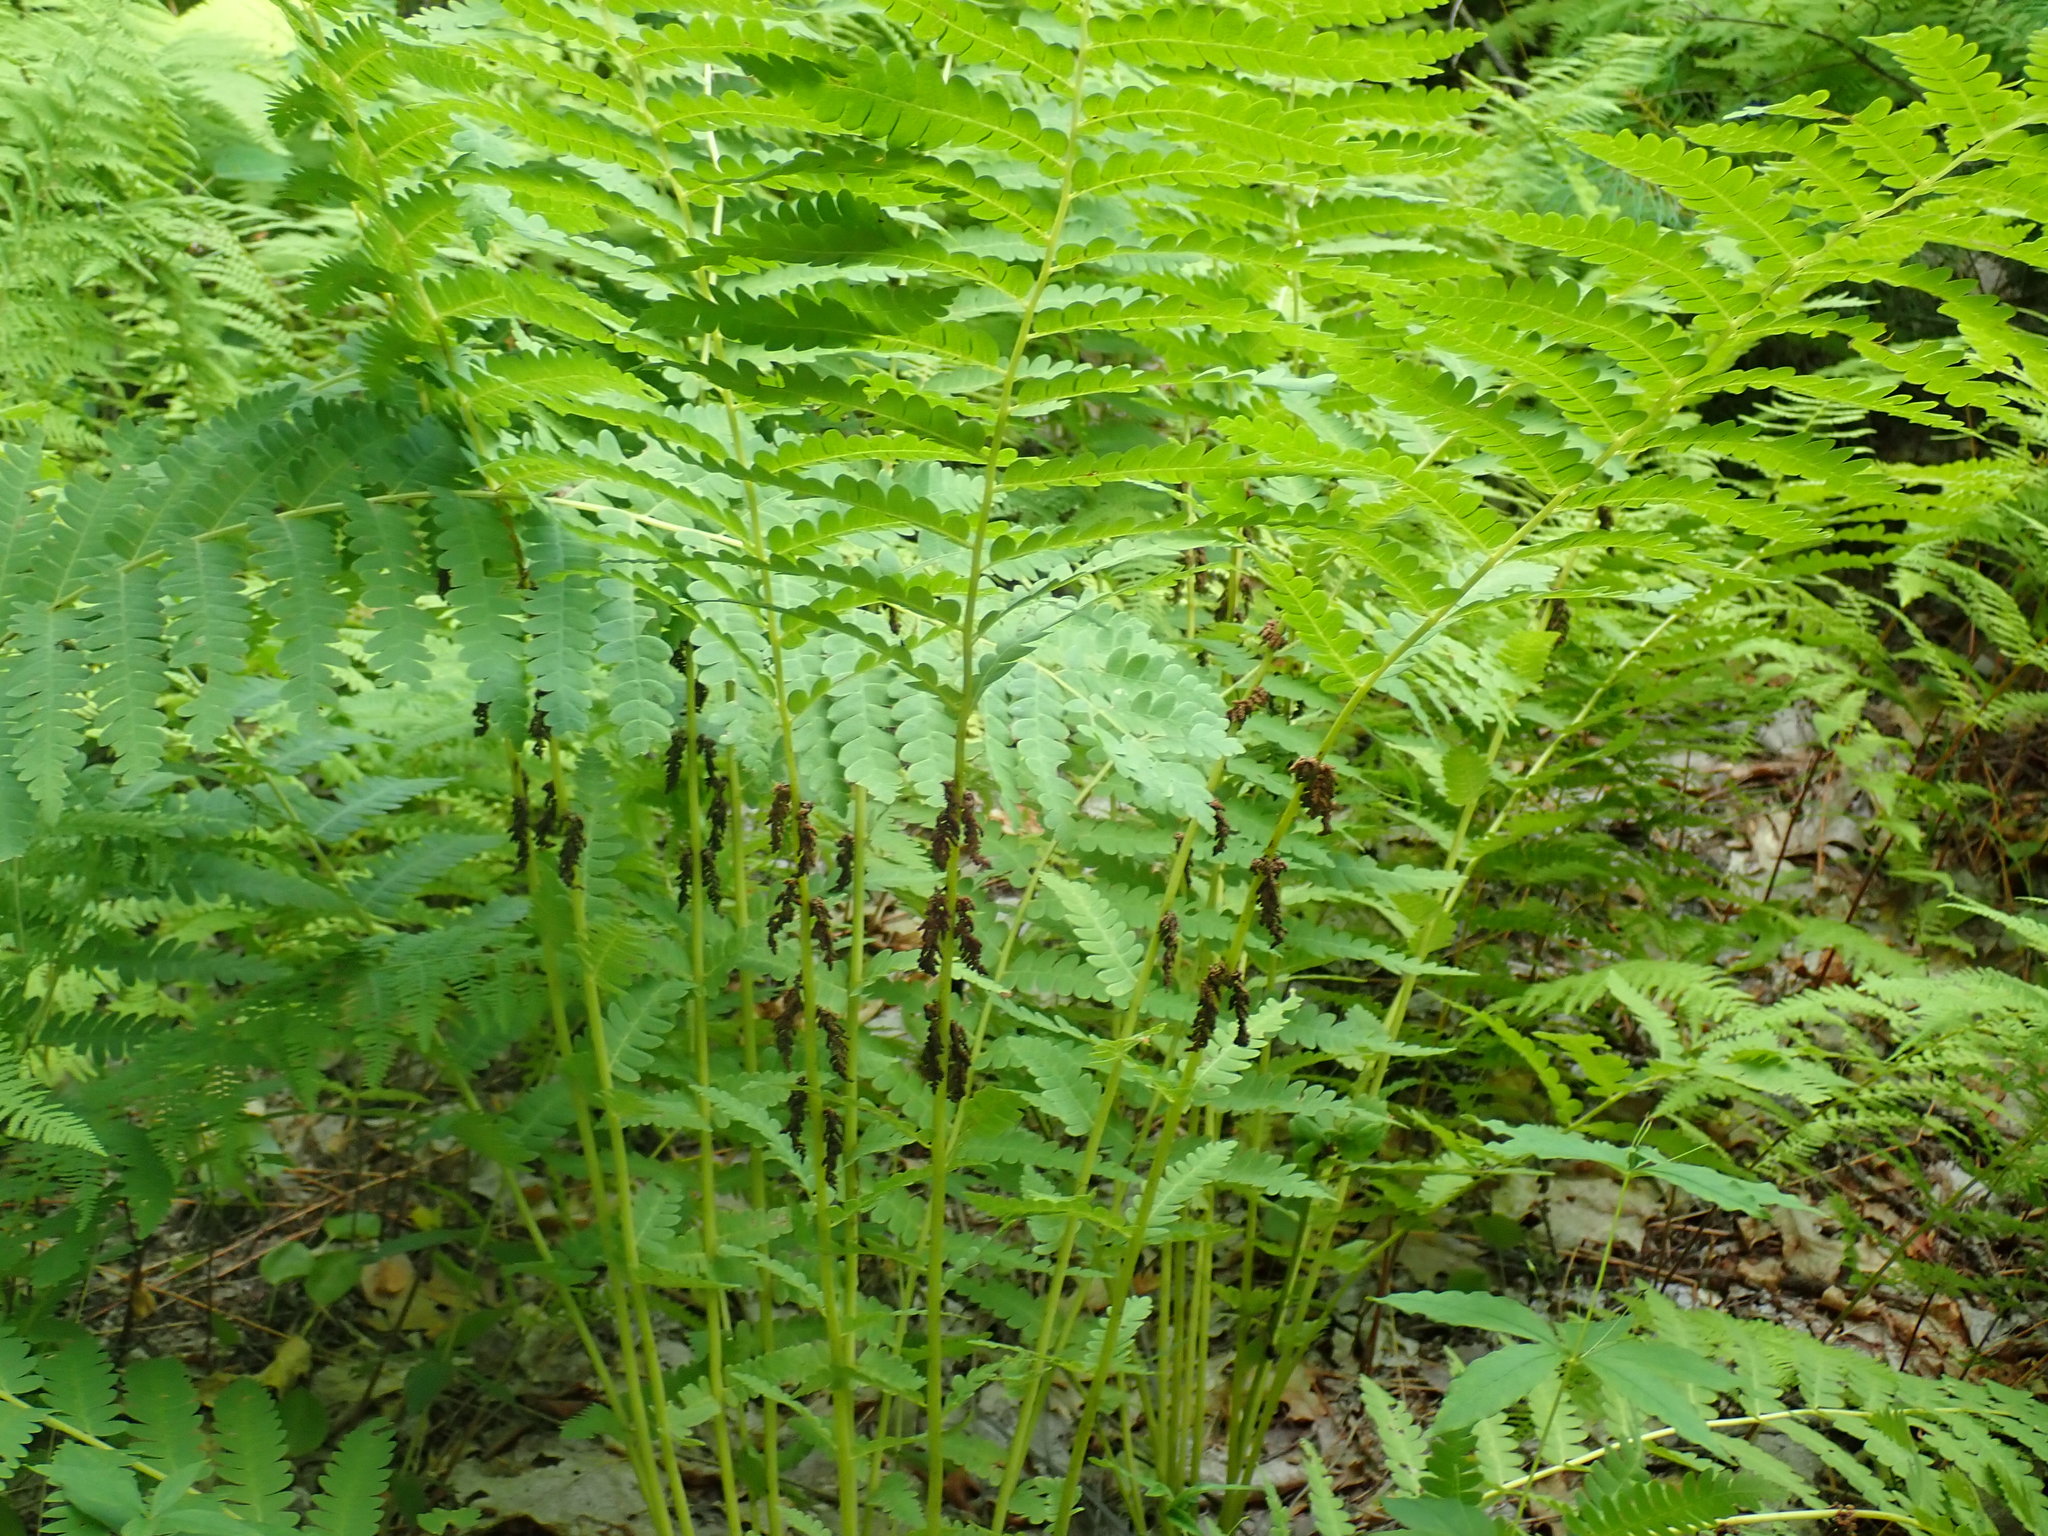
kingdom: Plantae
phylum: Tracheophyta
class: Polypodiopsida
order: Osmundales
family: Osmundaceae
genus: Claytosmunda
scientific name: Claytosmunda claytoniana
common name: Clayton's fern
